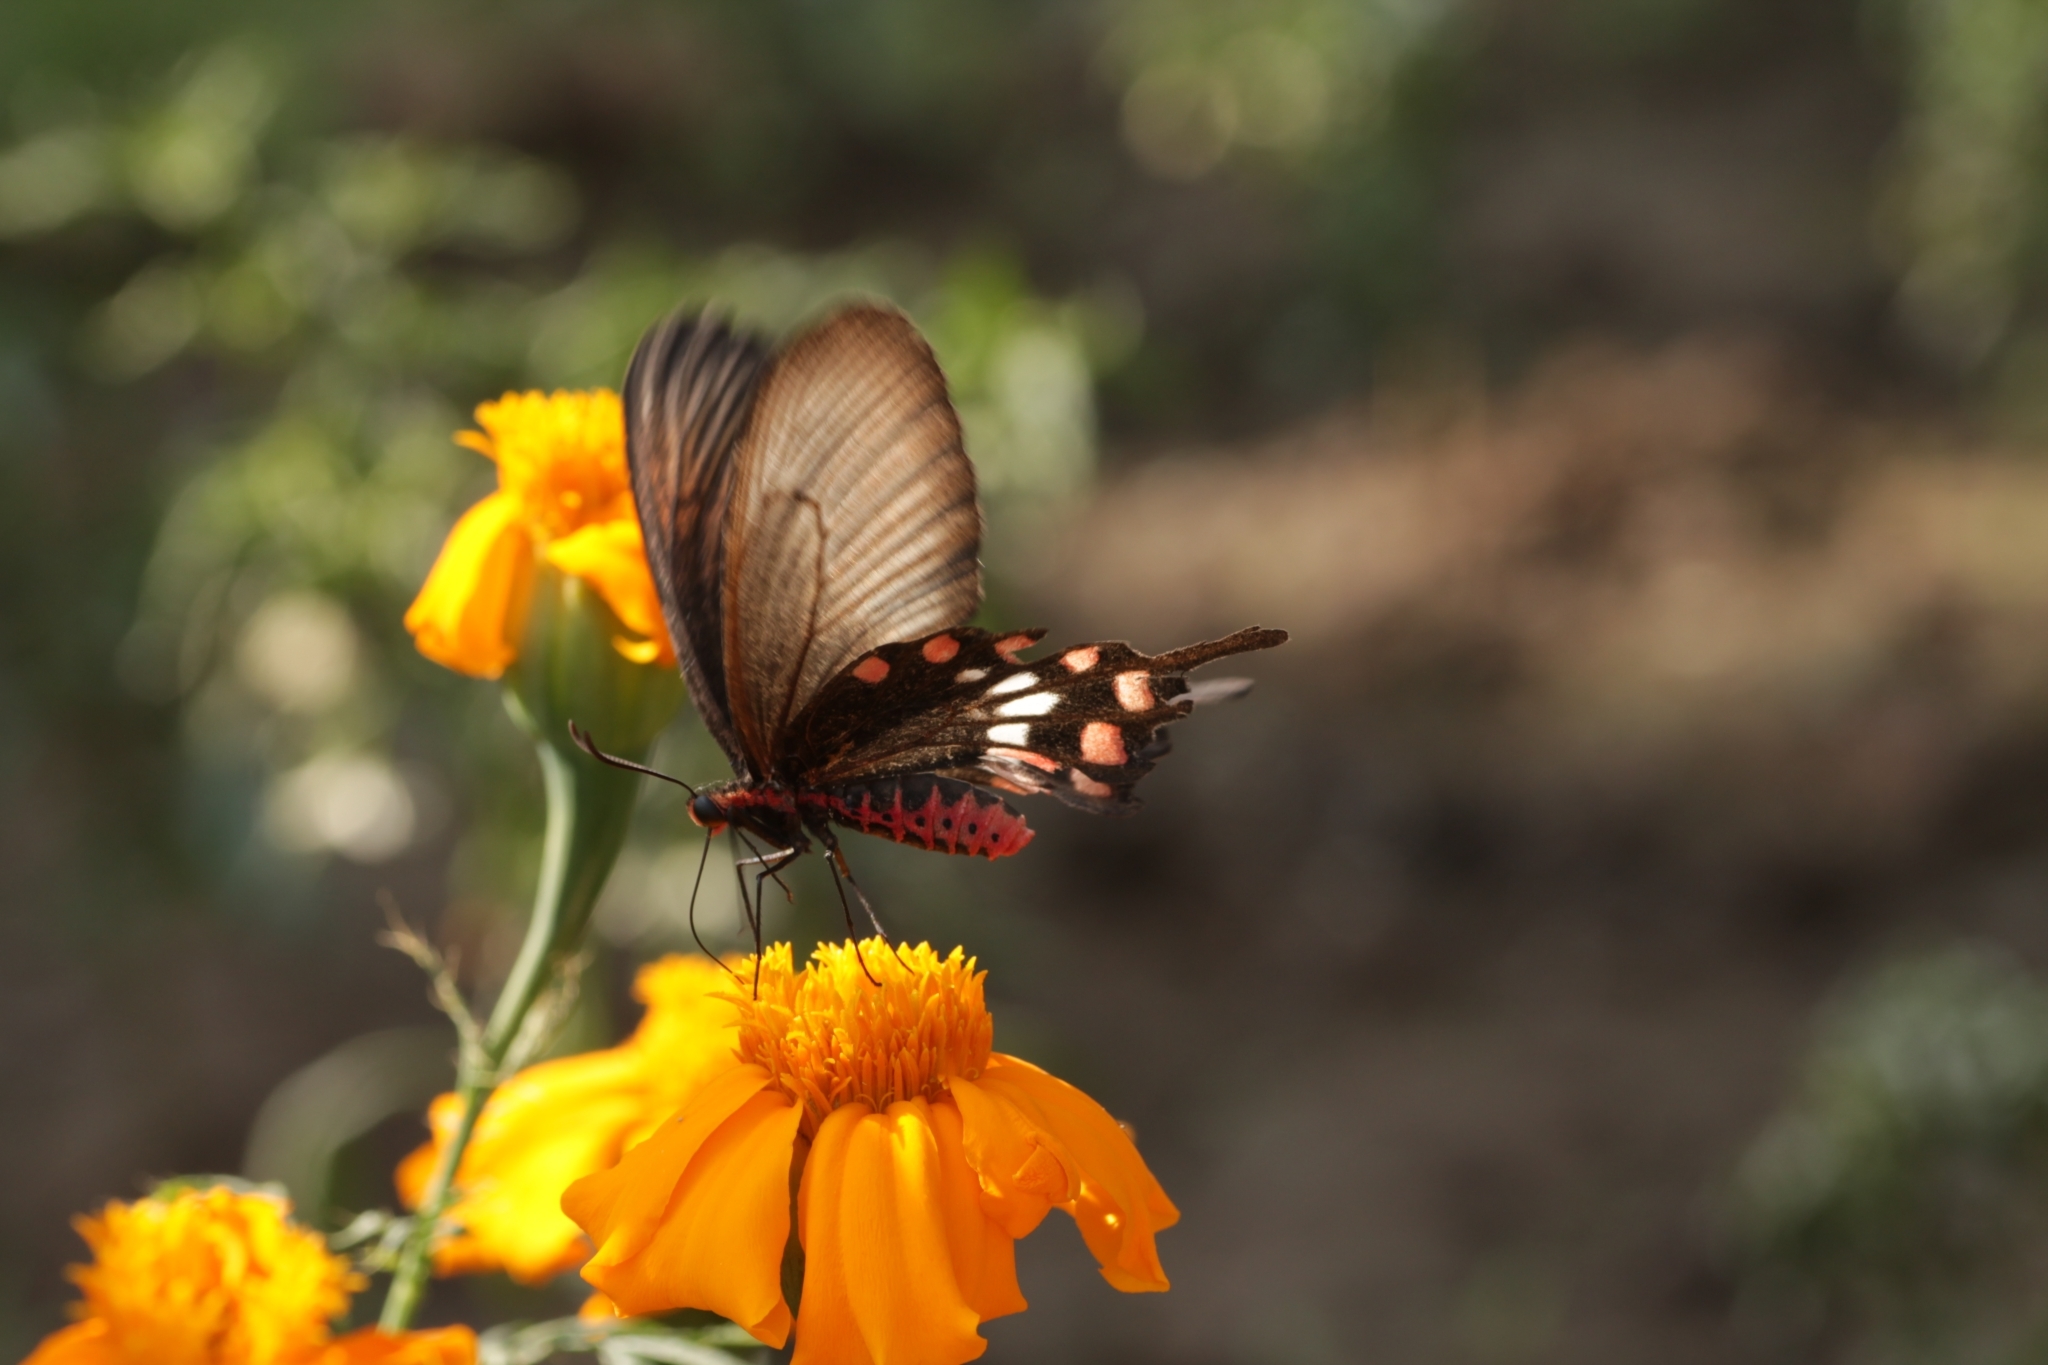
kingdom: Animalia
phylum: Arthropoda
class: Insecta
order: Lepidoptera
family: Papilionidae
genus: Pachliopta
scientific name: Pachliopta aristolochiae
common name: Common rose
